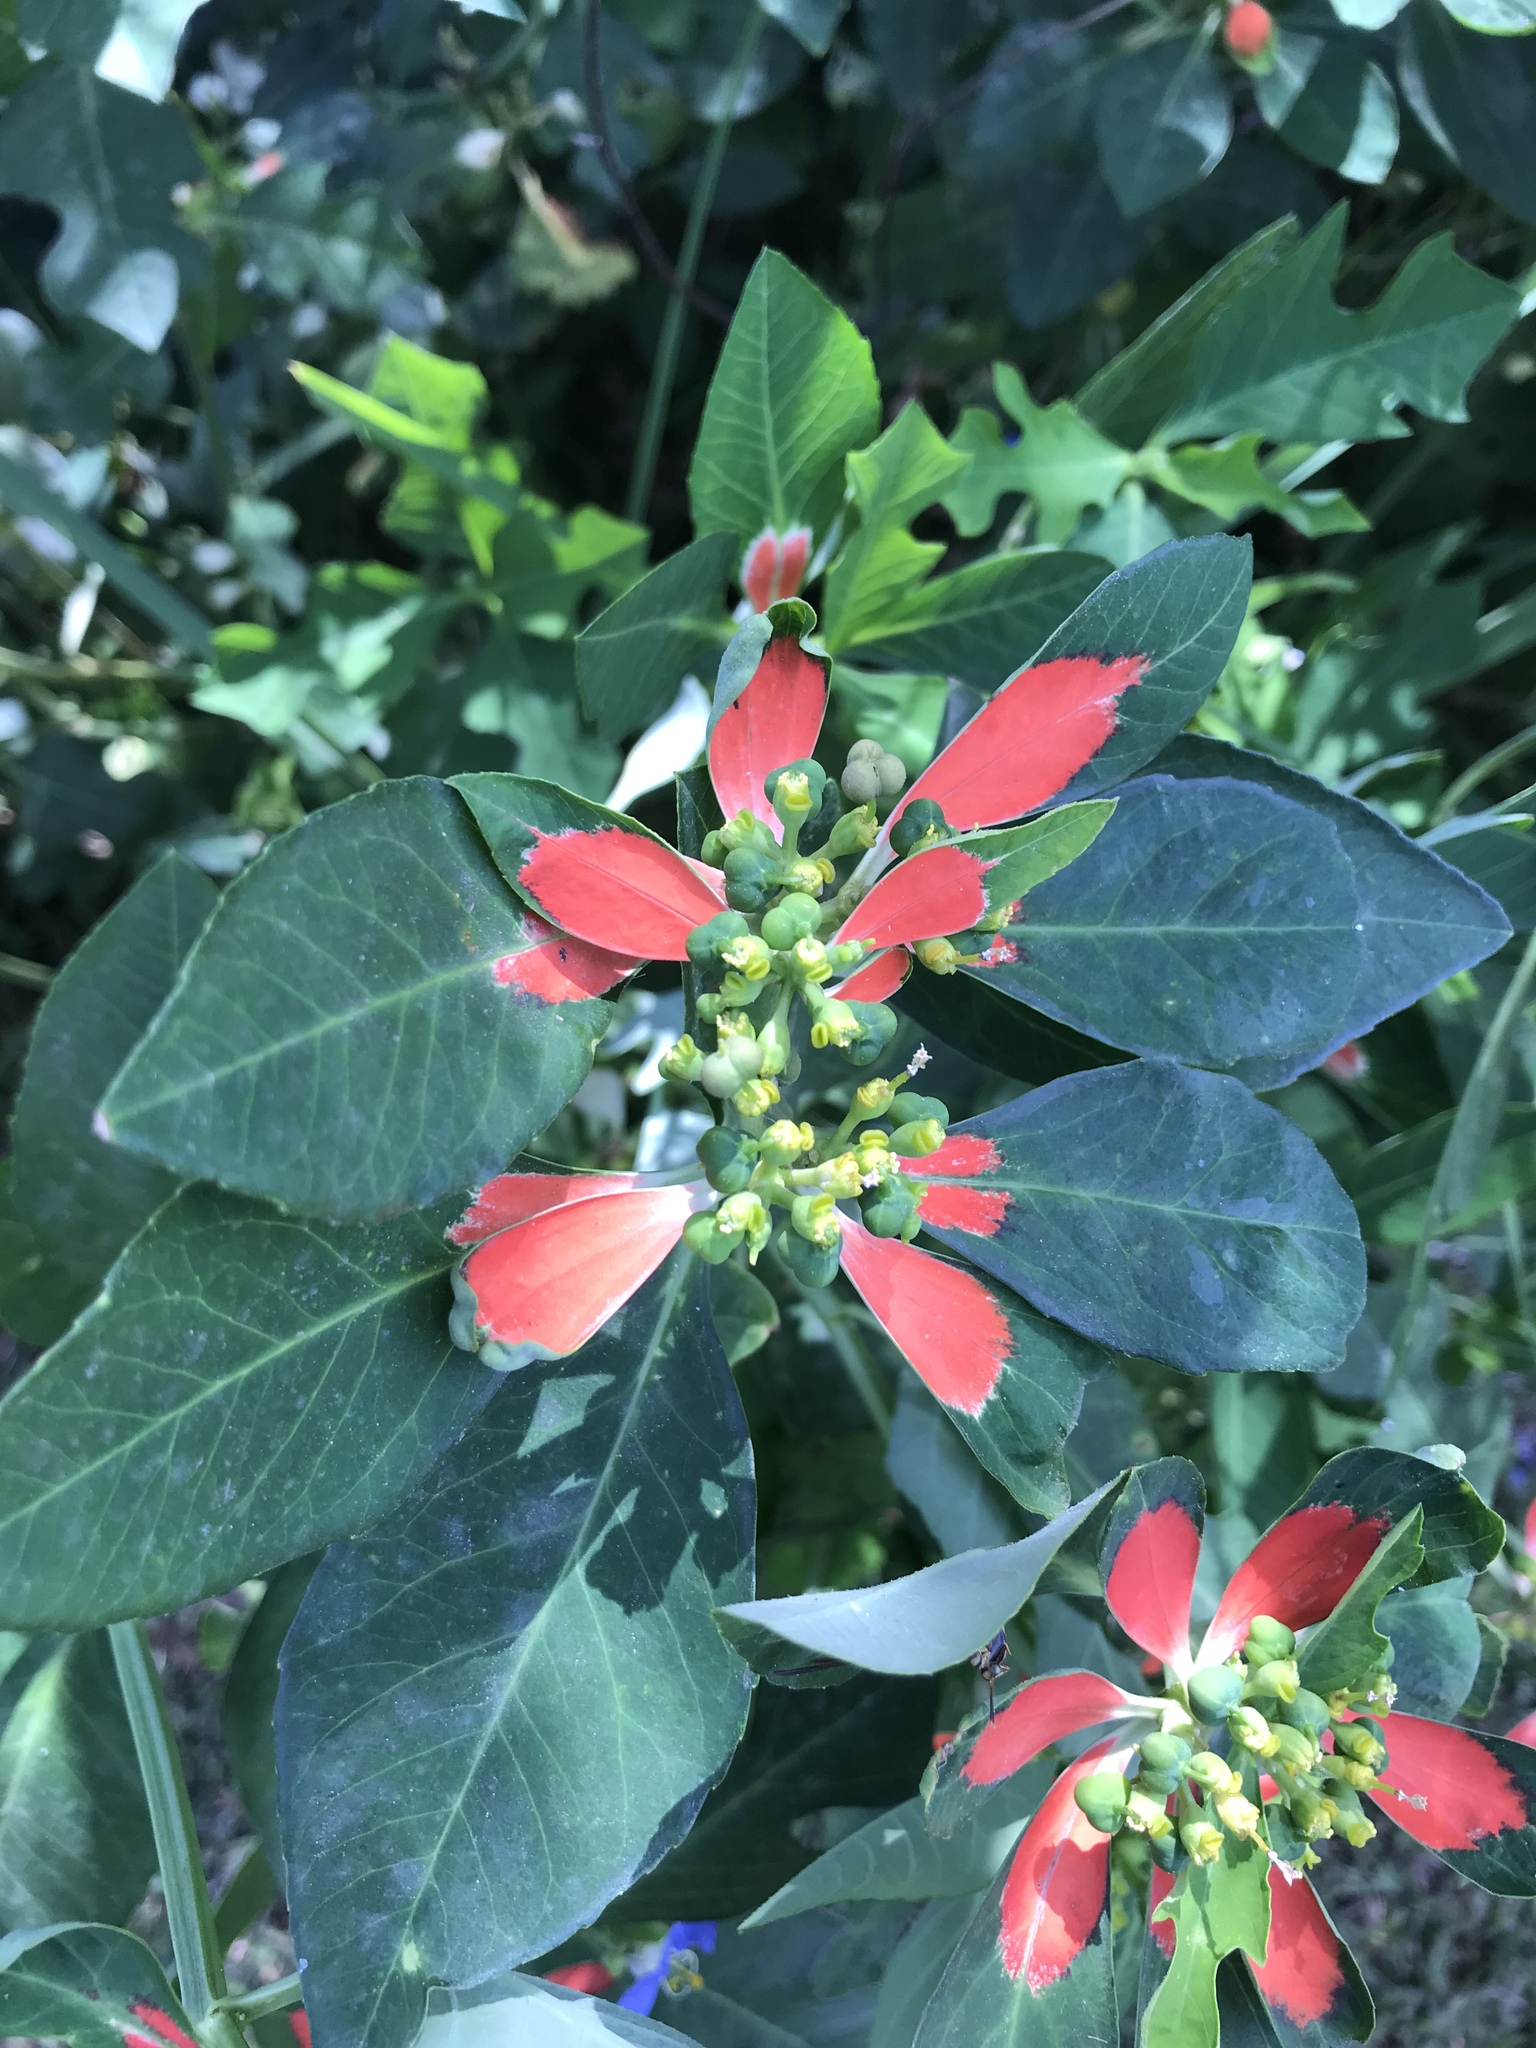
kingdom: Plantae
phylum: Tracheophyta
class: Magnoliopsida
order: Malpighiales
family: Euphorbiaceae
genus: Euphorbia
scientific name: Euphorbia heterophylla
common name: Mexican fireplant
